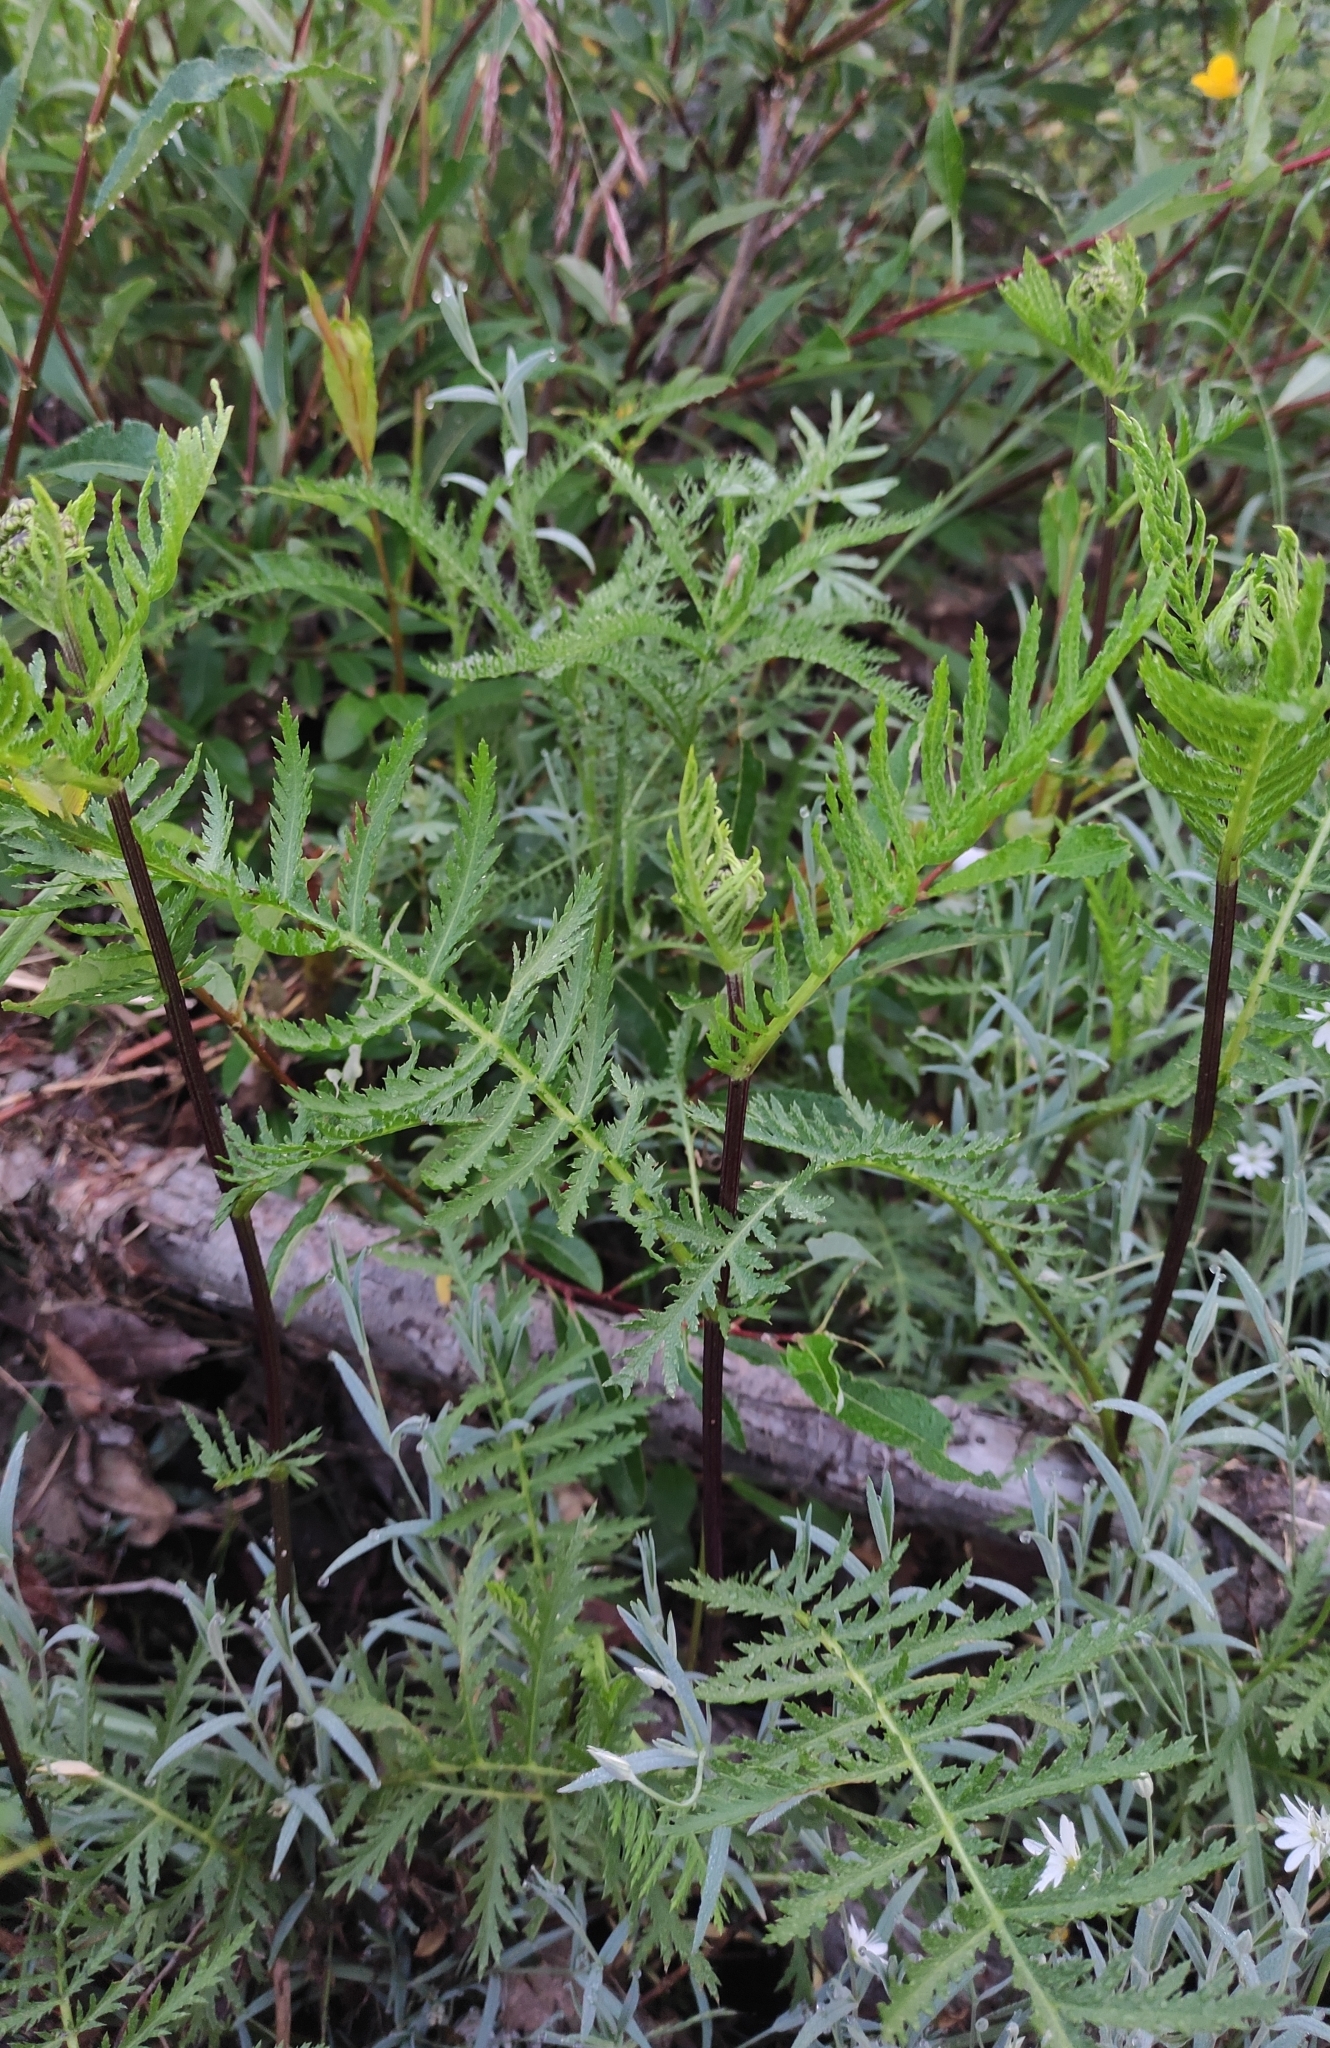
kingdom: Plantae
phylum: Tracheophyta
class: Magnoliopsida
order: Asterales
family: Asteraceae
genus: Tanacetum
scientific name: Tanacetum vulgare
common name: Common tansy
